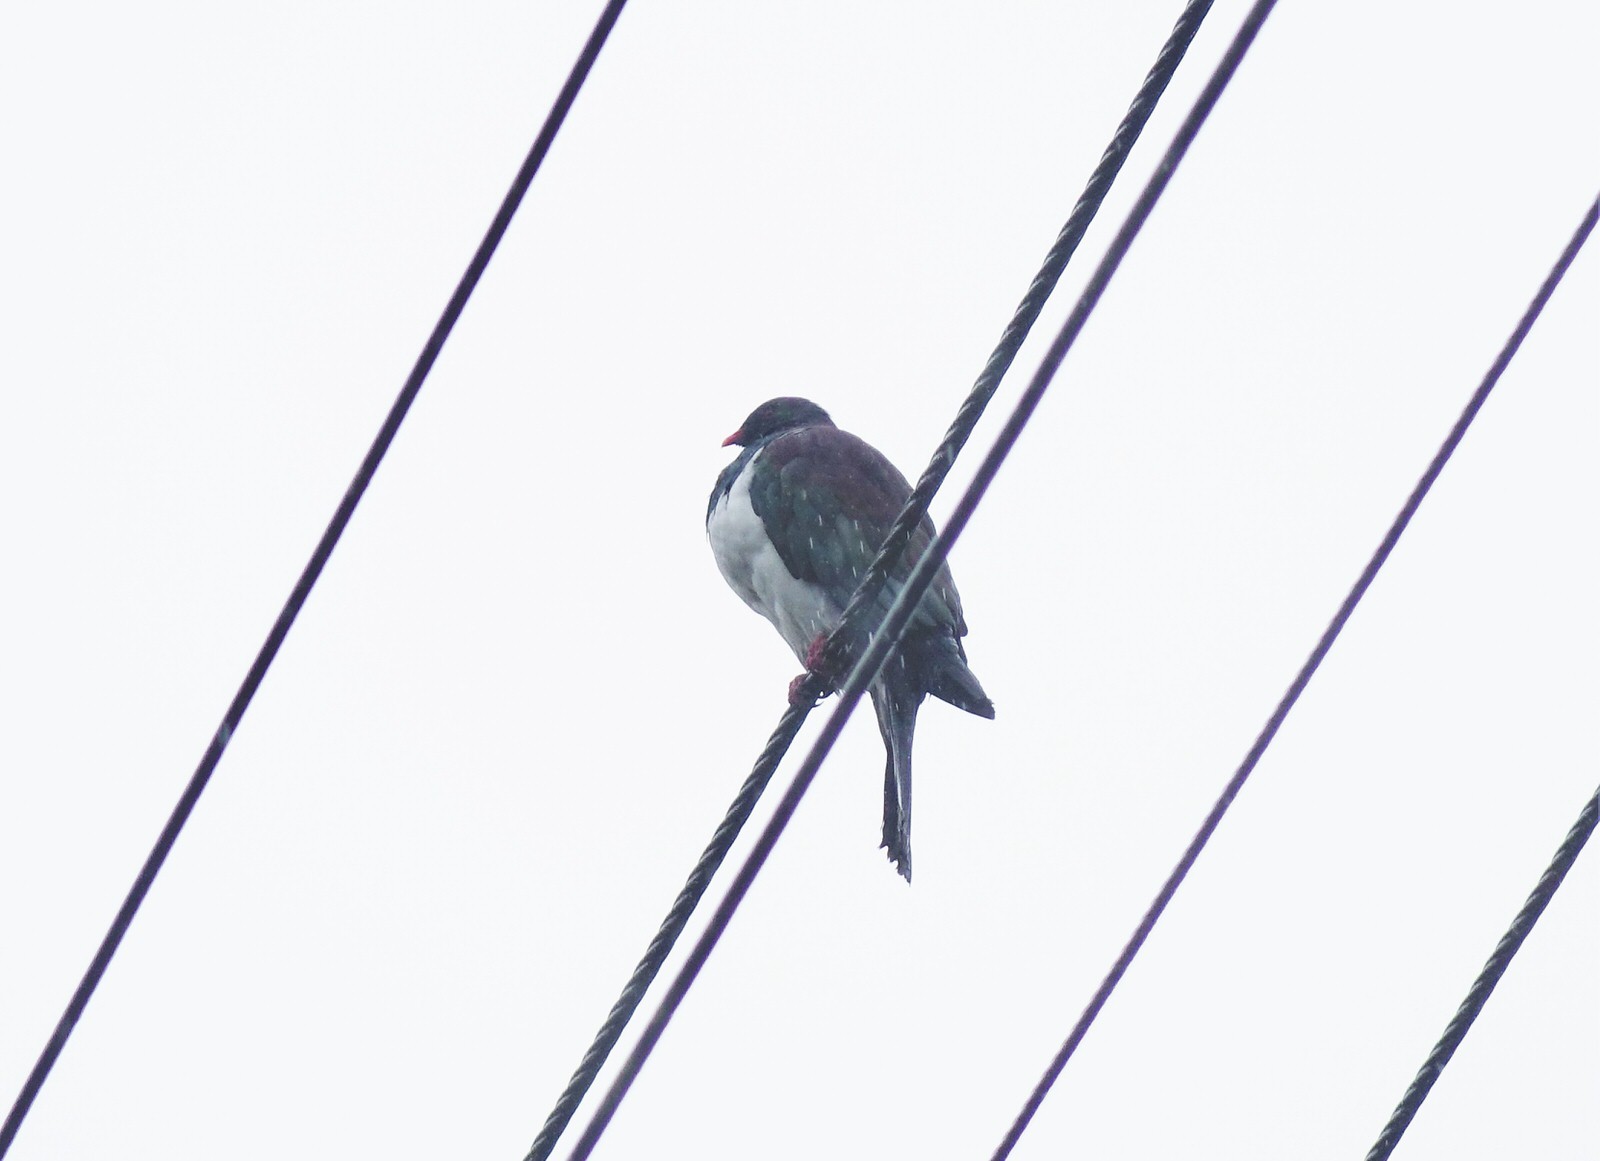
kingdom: Animalia
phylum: Chordata
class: Aves
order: Columbiformes
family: Columbidae
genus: Hemiphaga
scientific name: Hemiphaga novaeseelandiae
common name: New zealand pigeon
